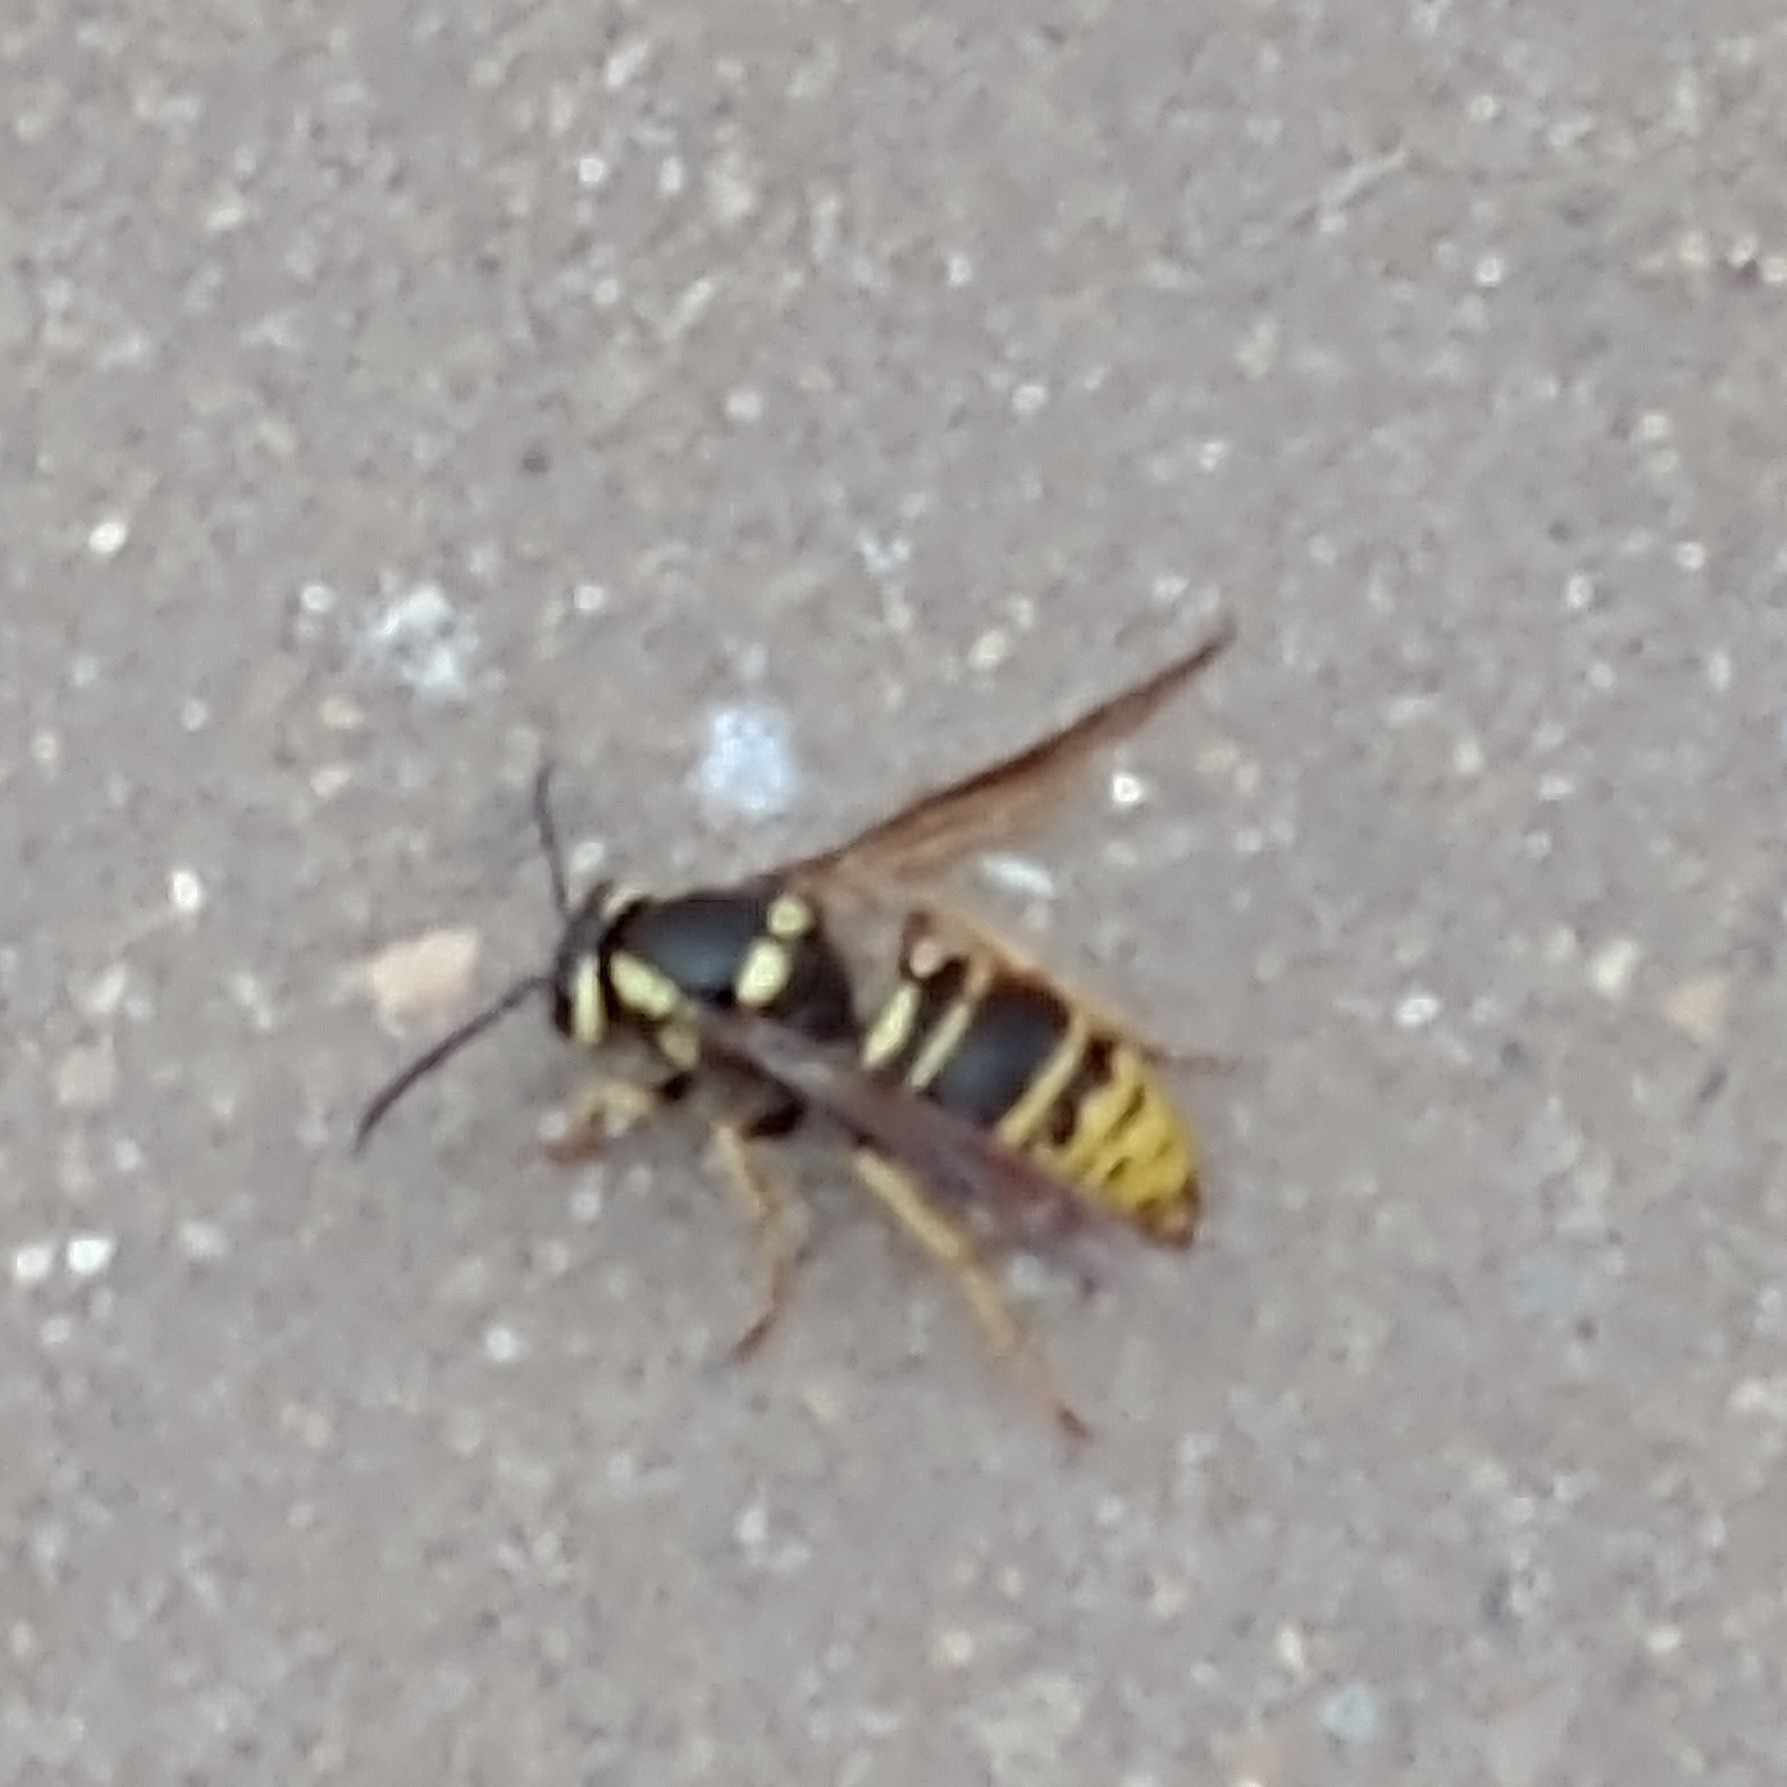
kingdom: Animalia
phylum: Arthropoda
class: Insecta
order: Hymenoptera
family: Vespidae
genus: Vespula
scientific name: Vespula vidua
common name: Widow yellowjacket
